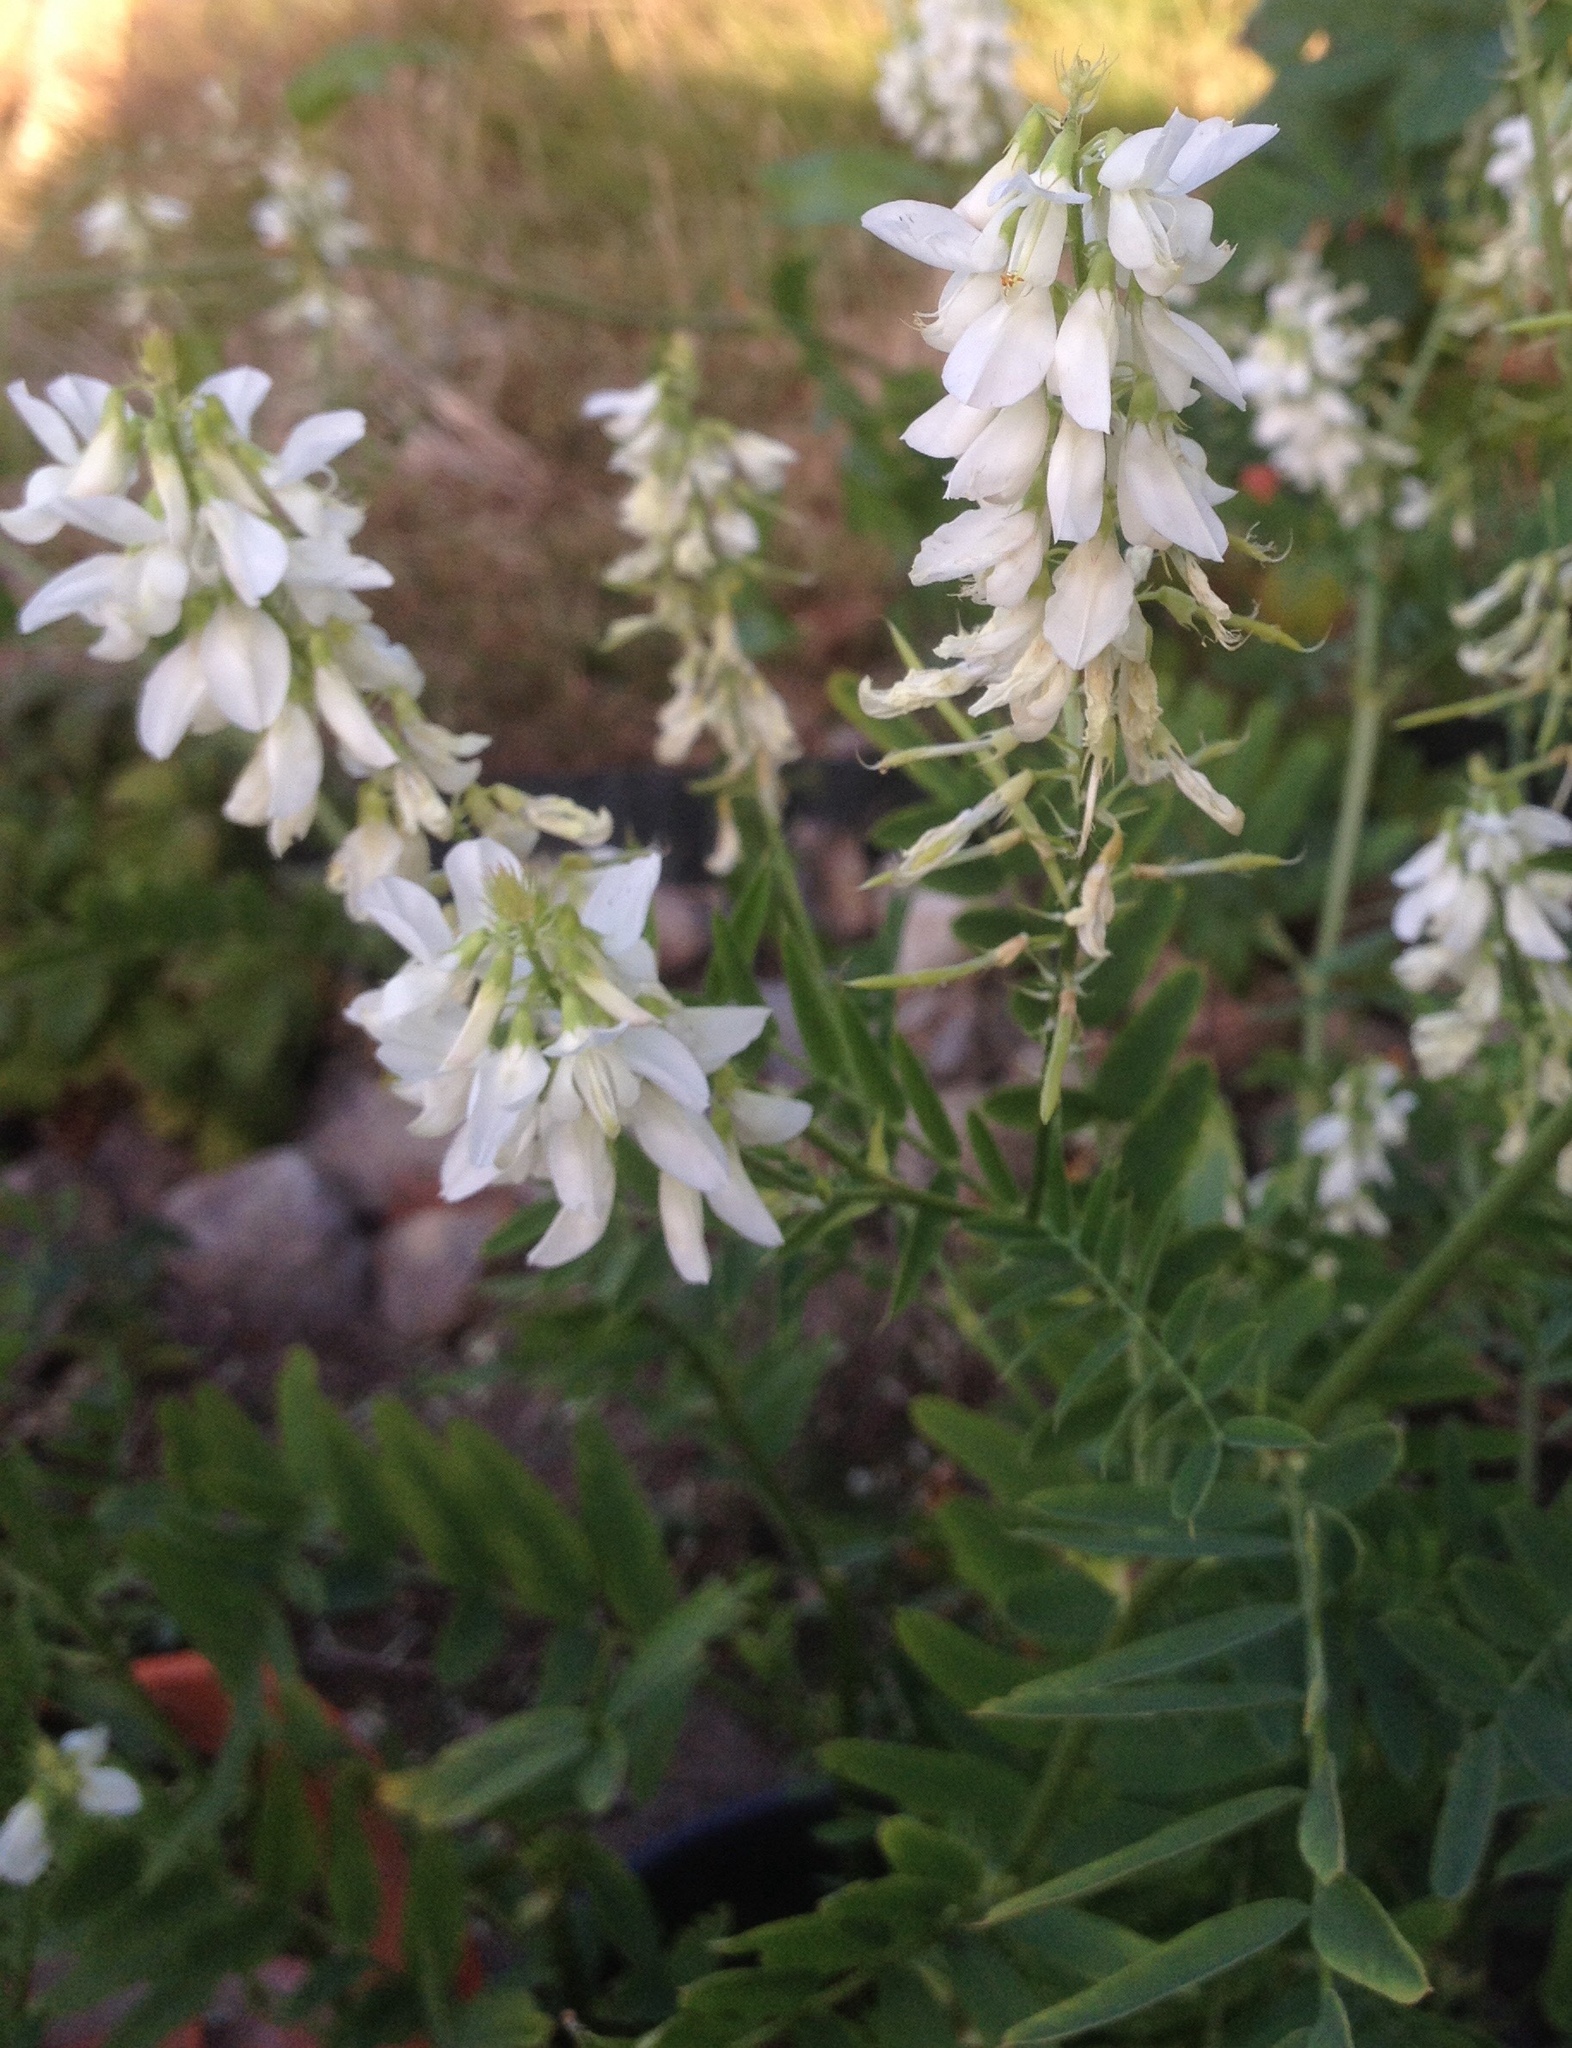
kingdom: Plantae
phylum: Tracheophyta
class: Magnoliopsida
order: Fabales
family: Fabaceae
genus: Galega
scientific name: Galega officinalis
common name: Goat's-rue
